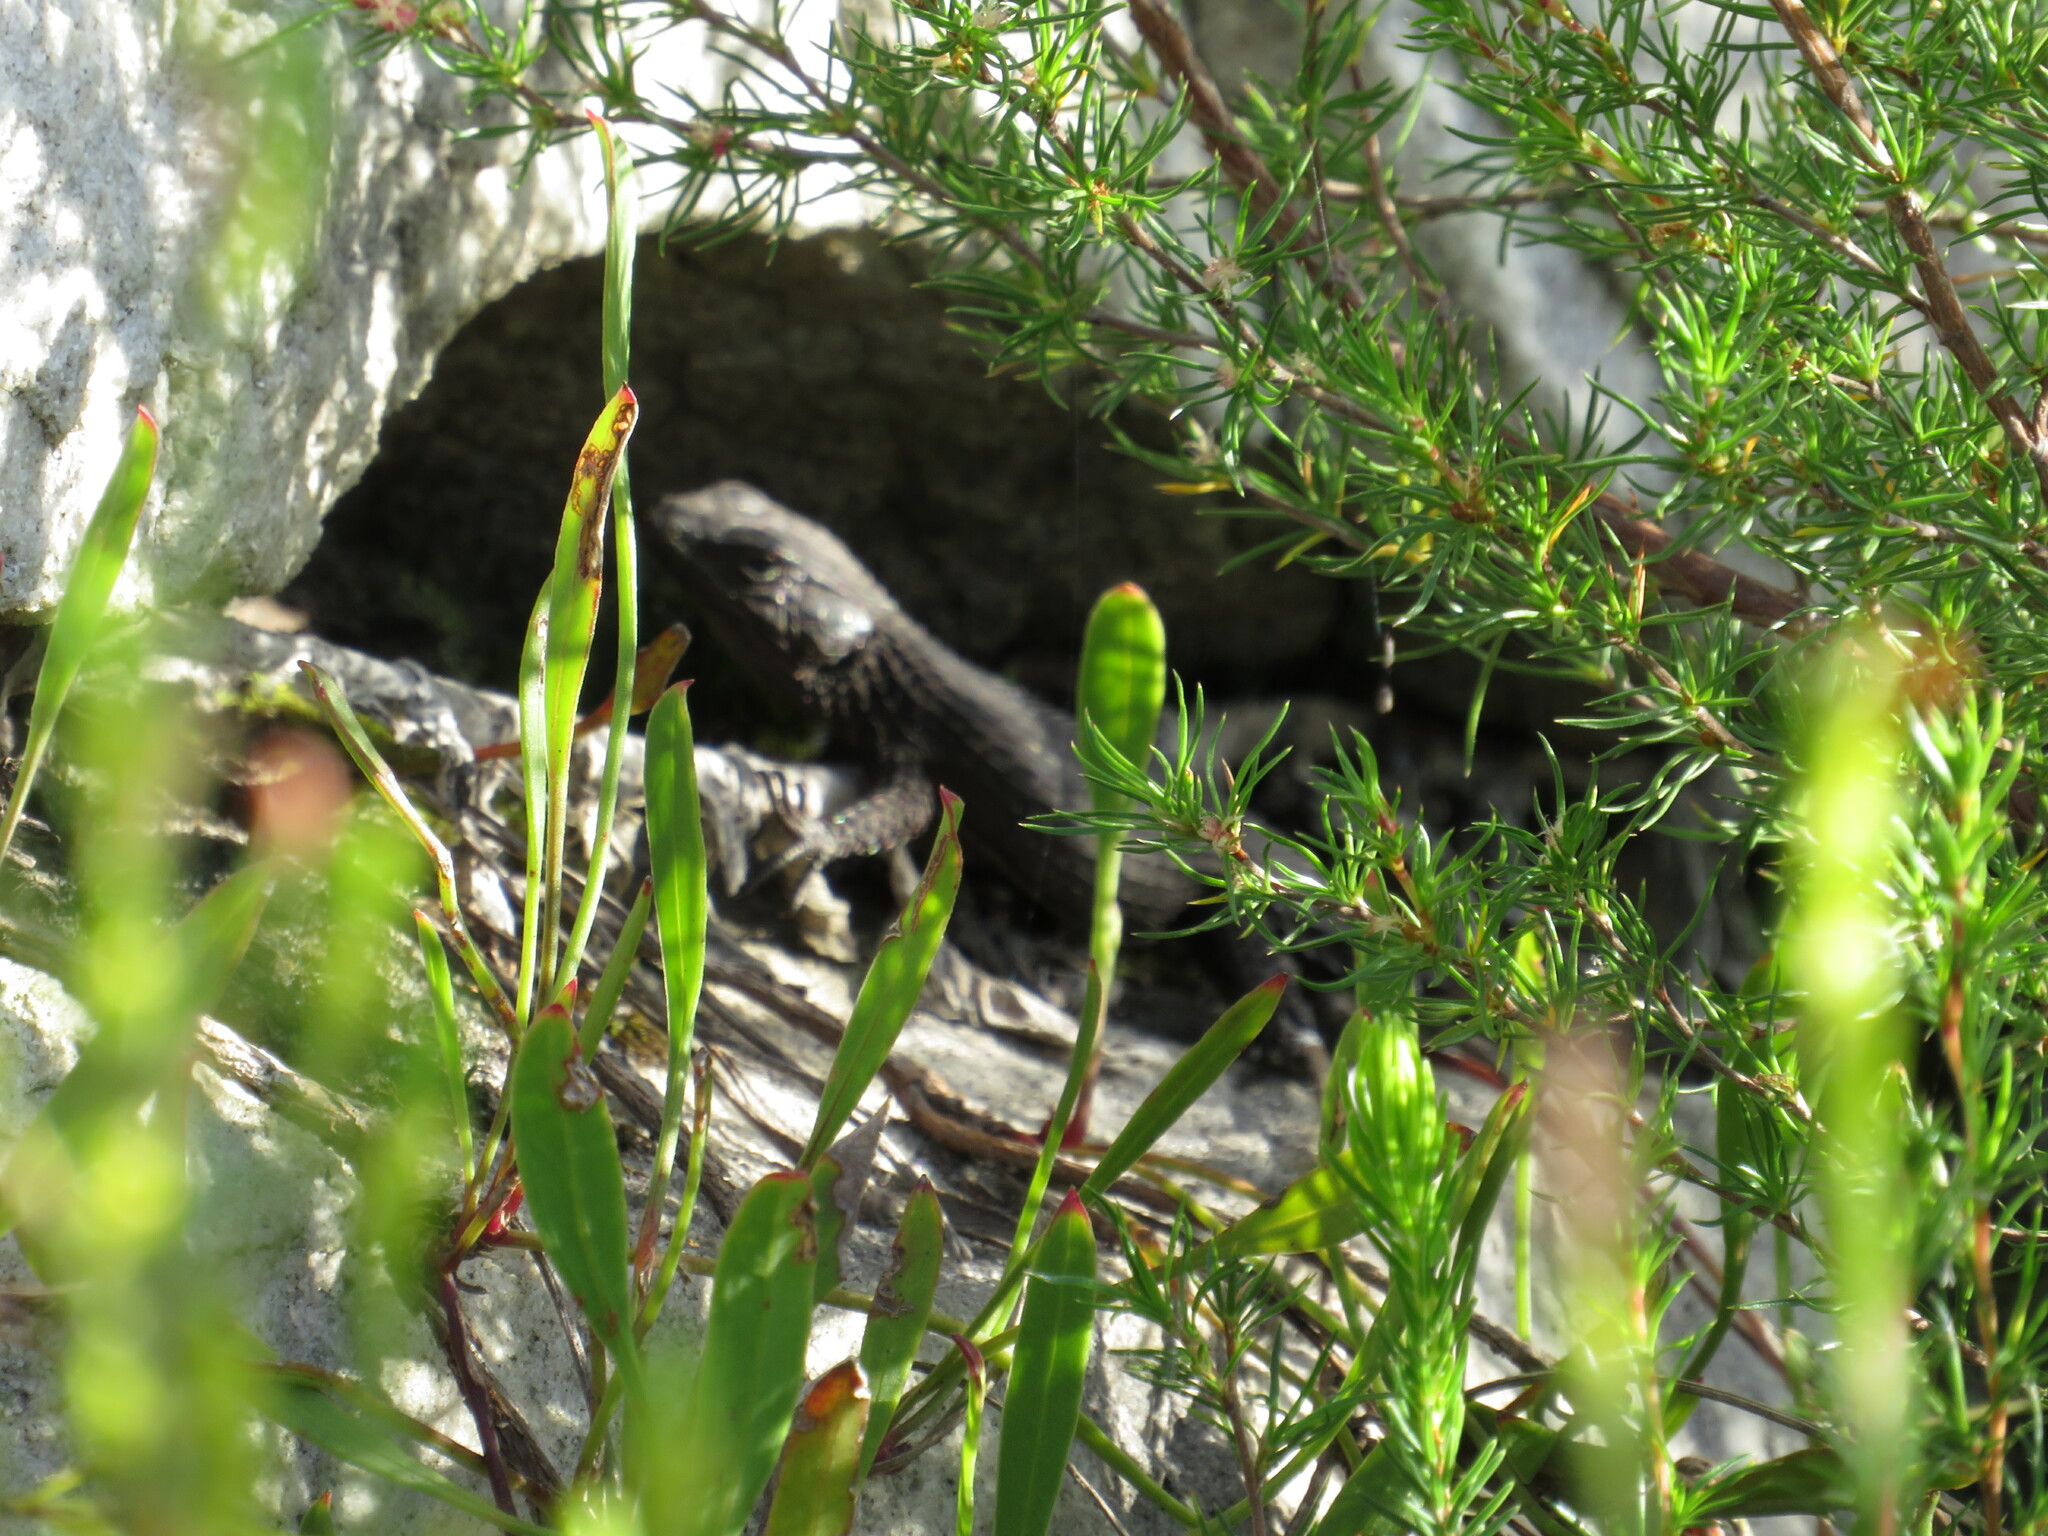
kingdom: Animalia
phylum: Chordata
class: Squamata
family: Cordylidae
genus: Cordylus
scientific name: Cordylus niger
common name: Black girdled lizard
